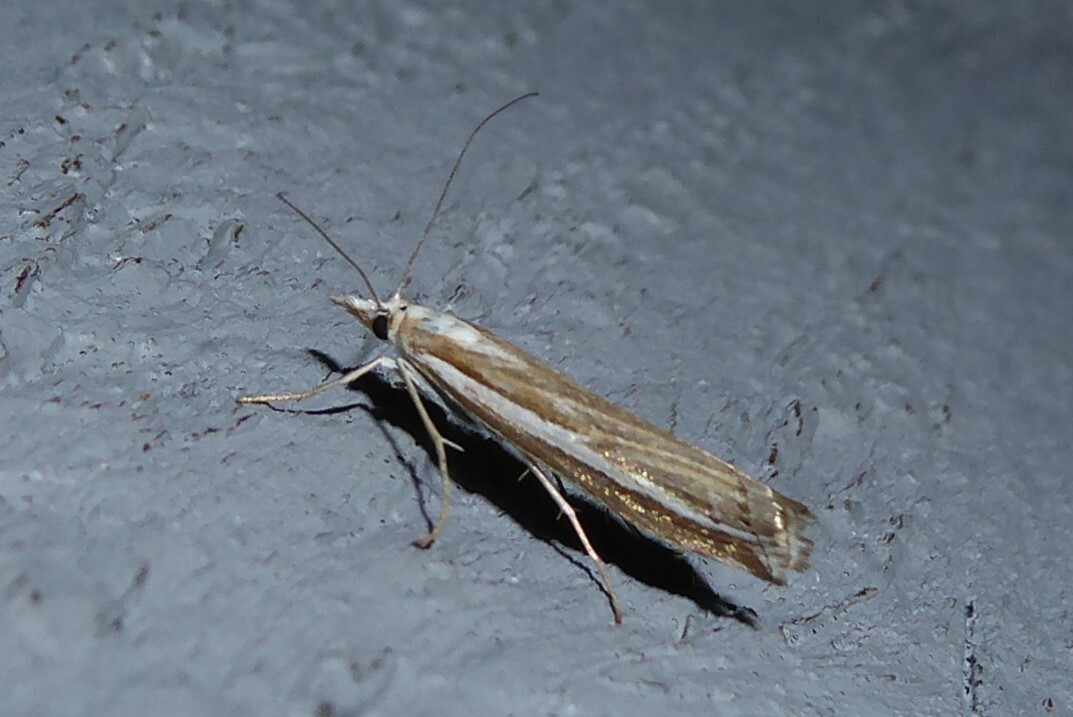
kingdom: Animalia
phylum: Arthropoda
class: Insecta
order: Lepidoptera
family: Crambidae
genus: Orocrambus
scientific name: Orocrambus vittellus
